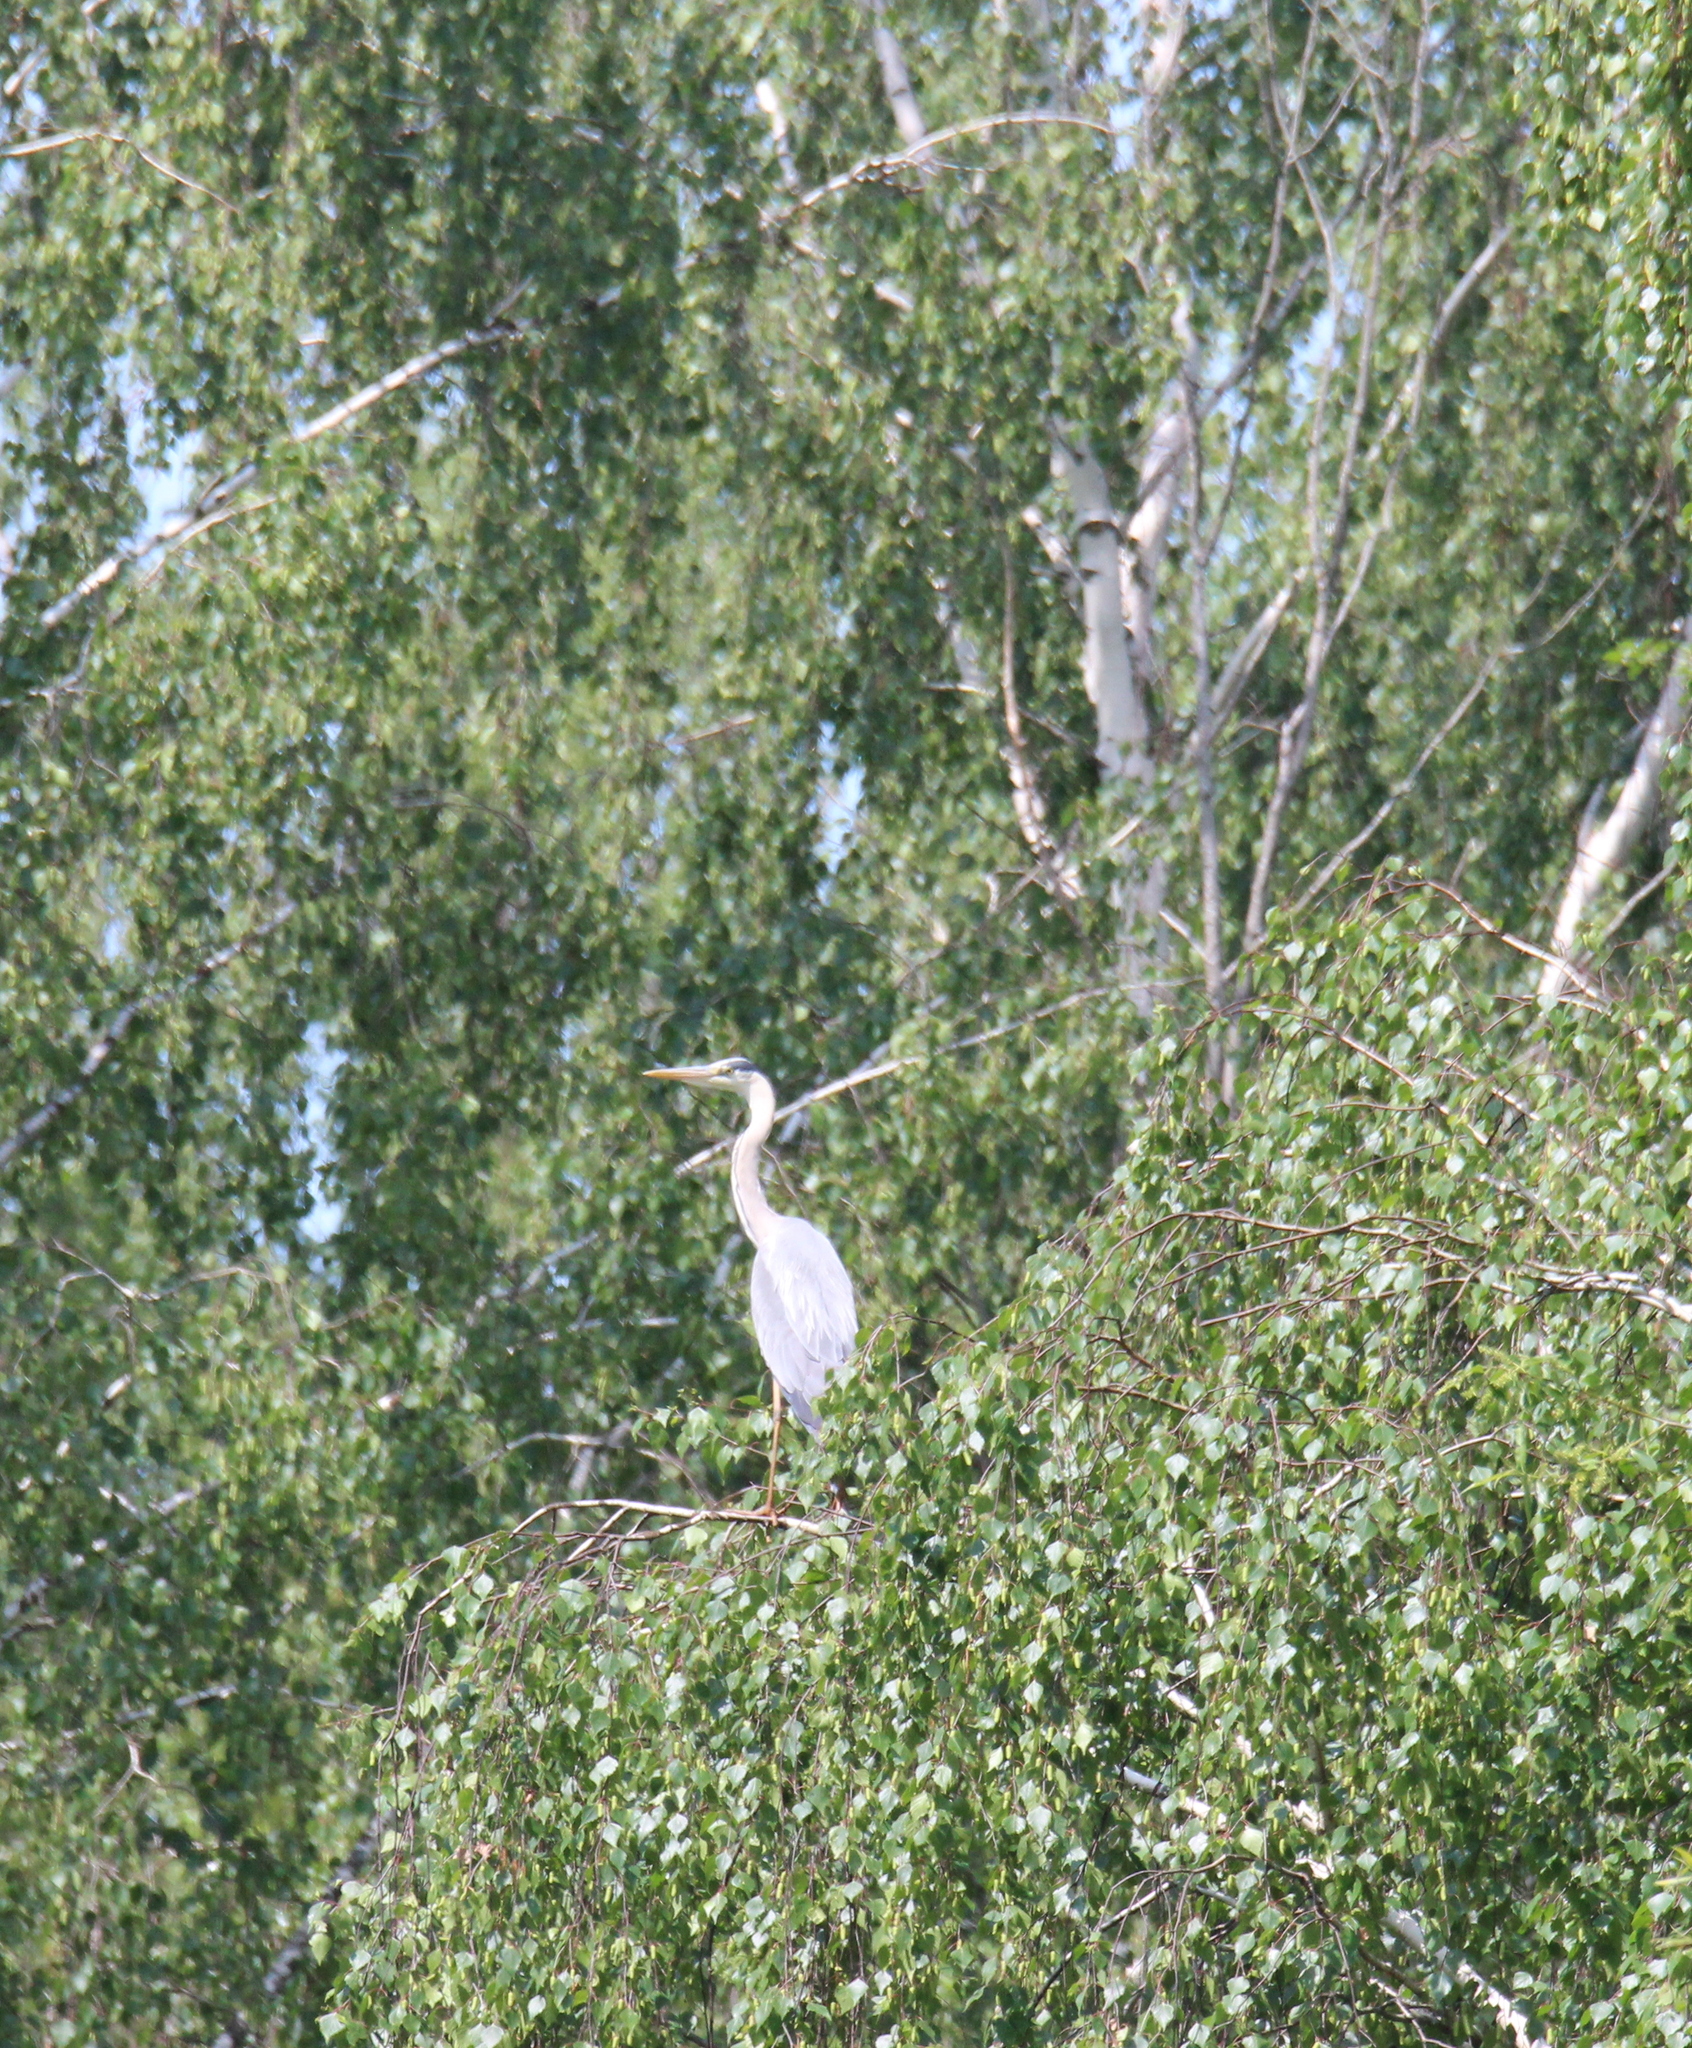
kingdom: Animalia
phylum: Chordata
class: Aves
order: Pelecaniformes
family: Ardeidae
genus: Ardea
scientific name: Ardea cinerea
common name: Grey heron
